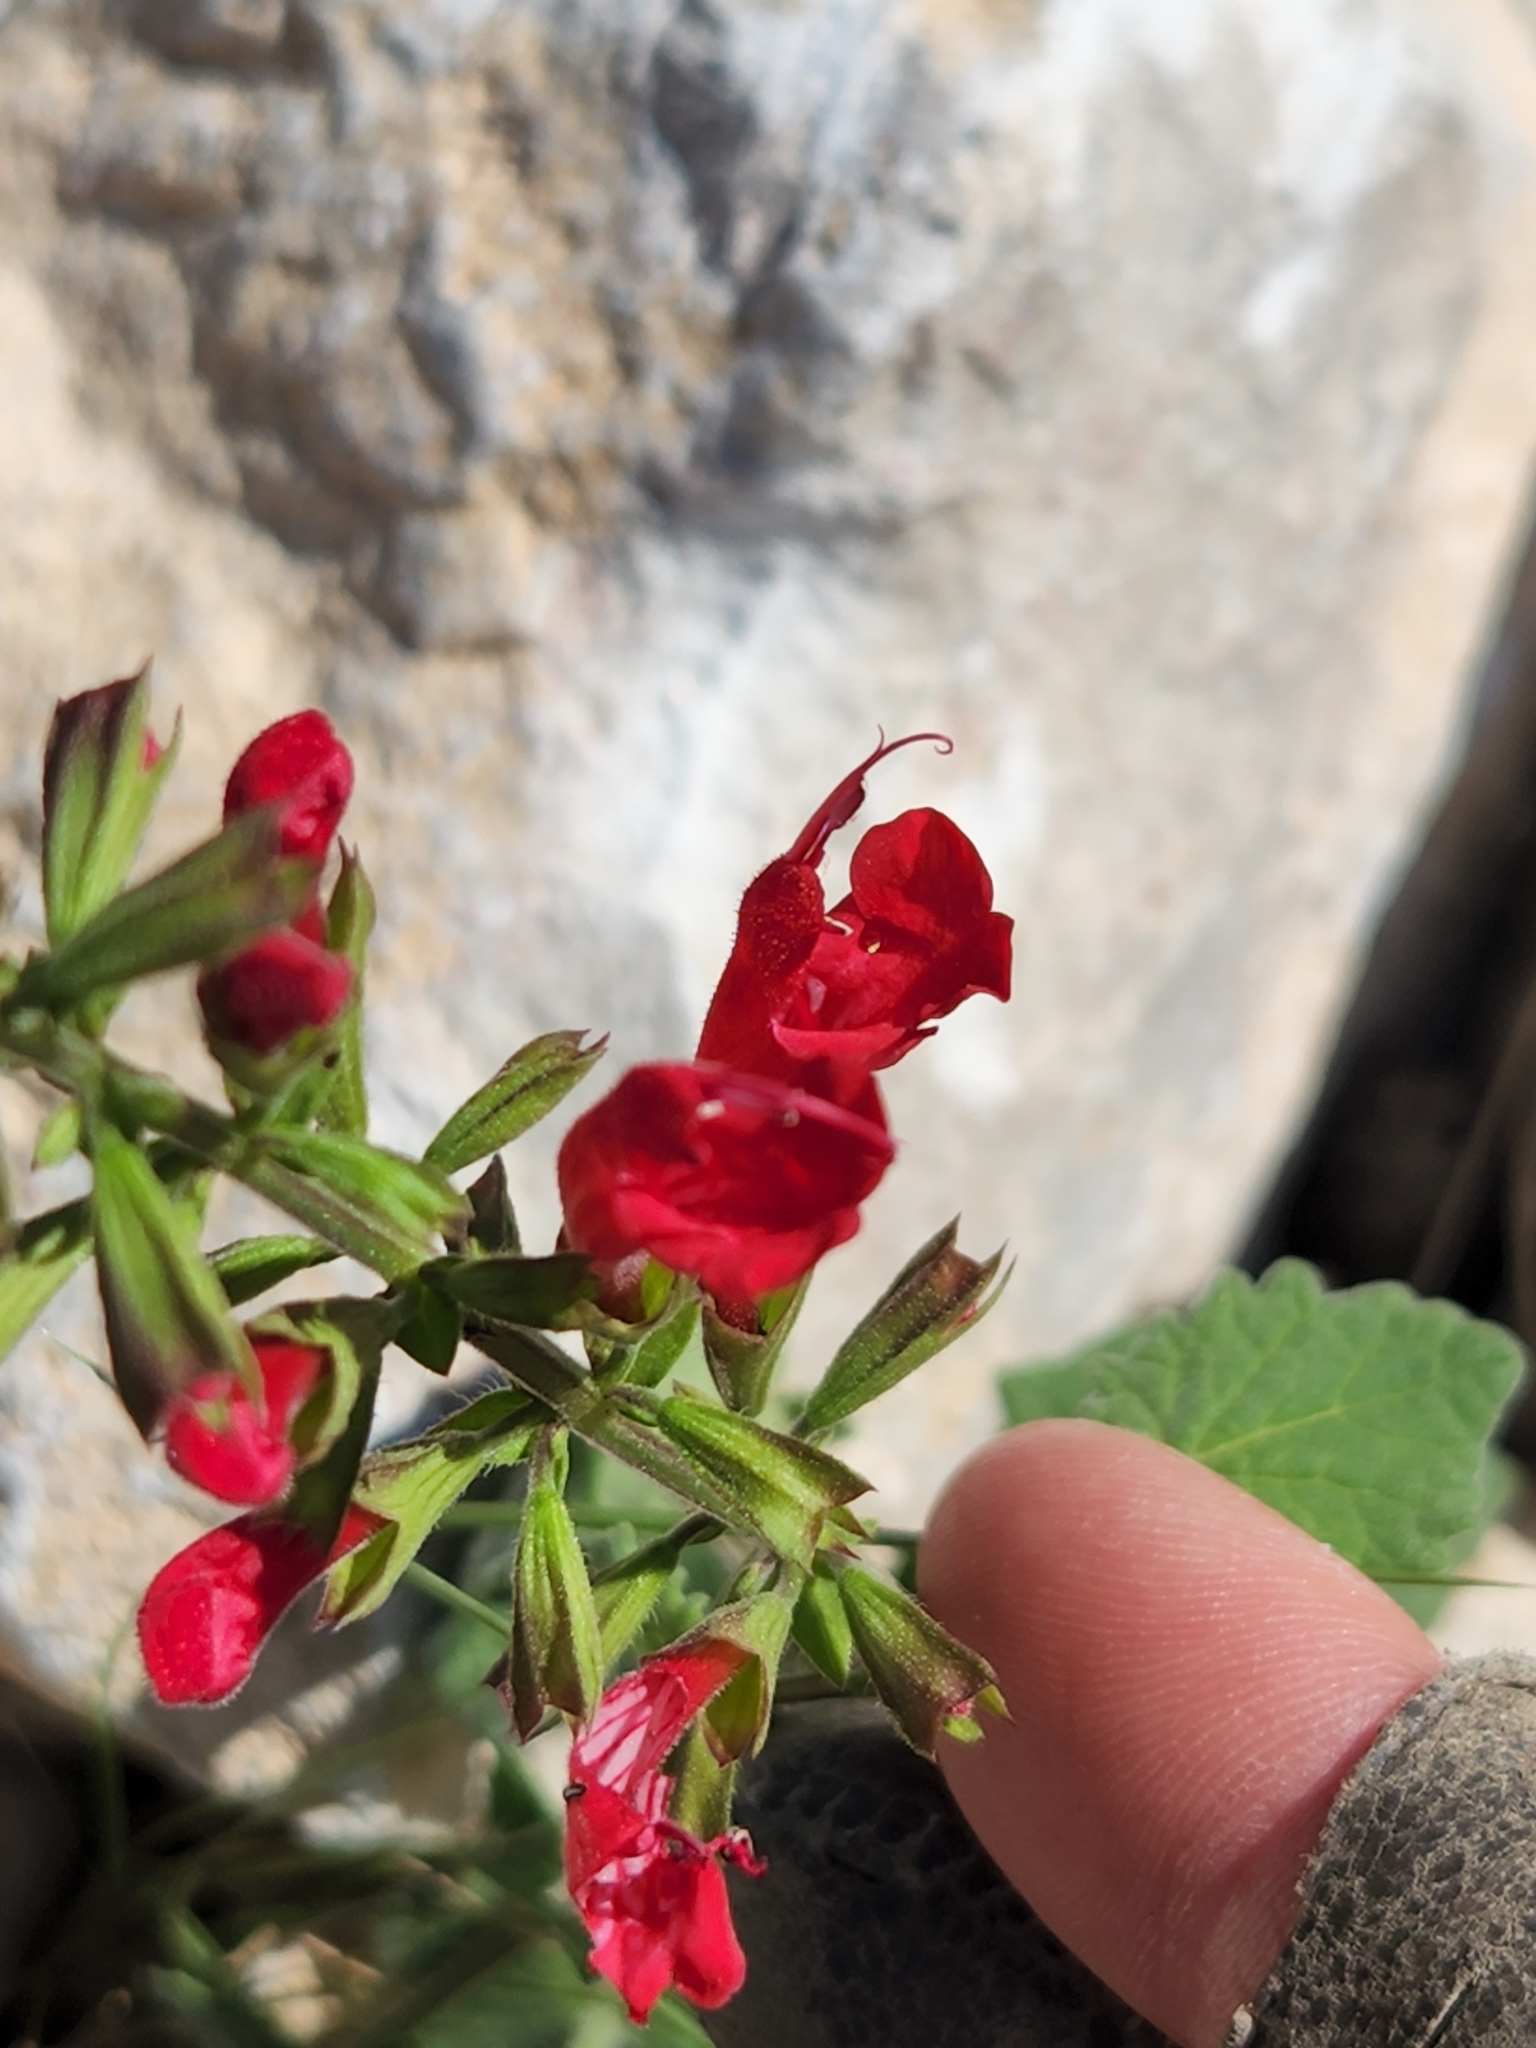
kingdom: Plantae
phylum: Tracheophyta
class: Magnoliopsida
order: Lamiales
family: Lamiaceae
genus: Salvia
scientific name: Salvia roemeriana
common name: Cedar sage
